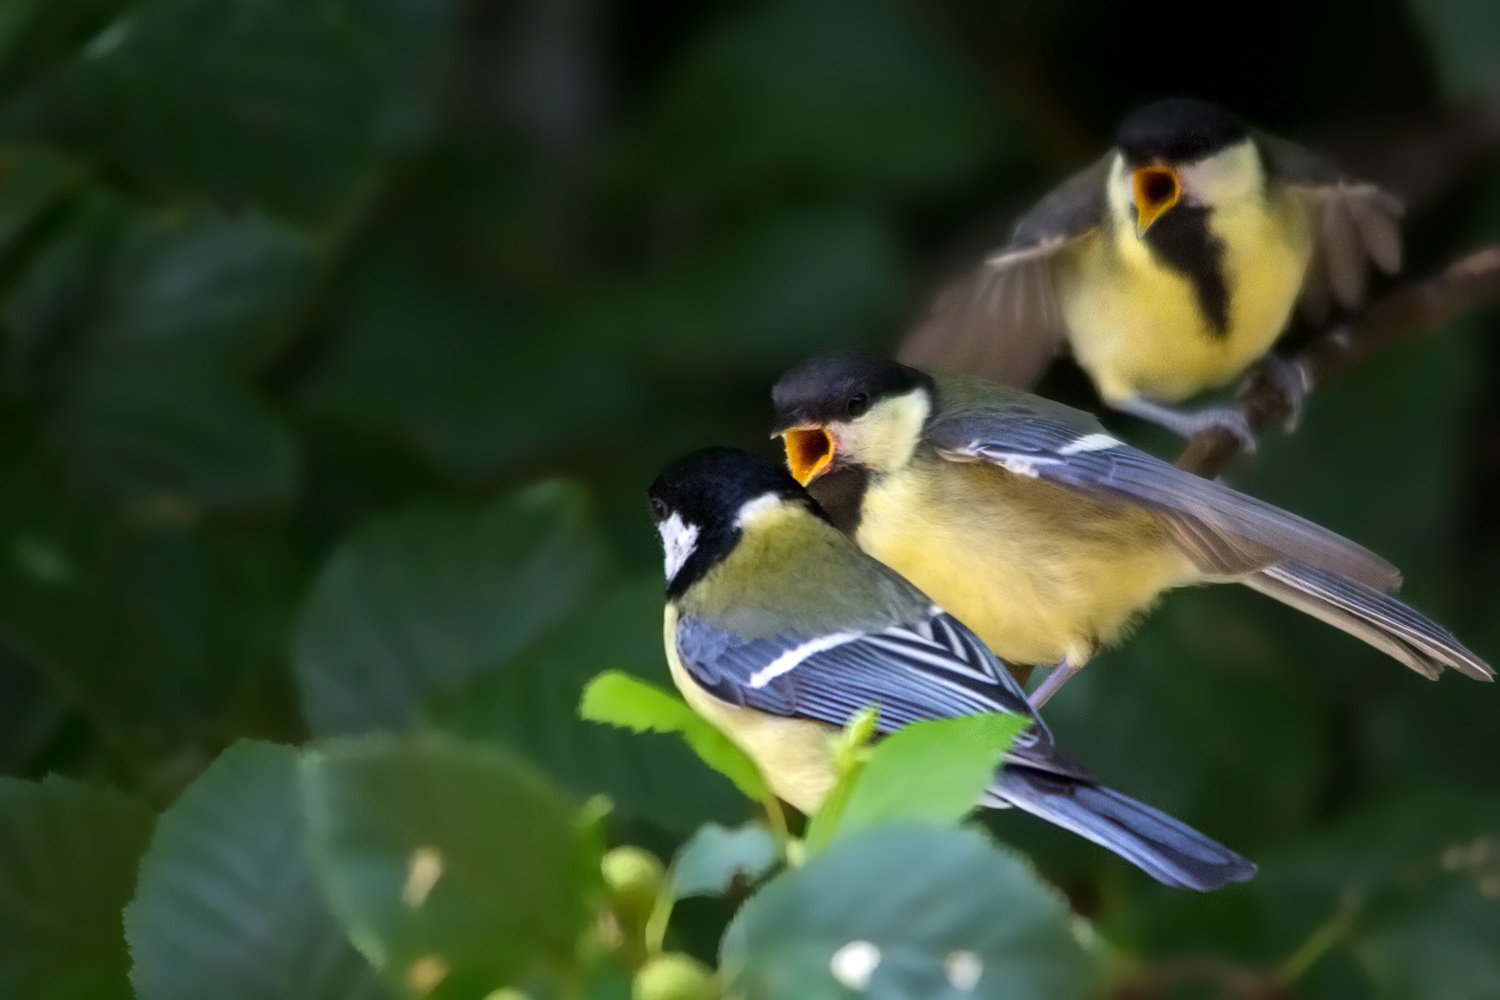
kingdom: Animalia
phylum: Chordata
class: Aves
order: Passeriformes
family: Paridae
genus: Parus
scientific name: Parus major
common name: Great tit
